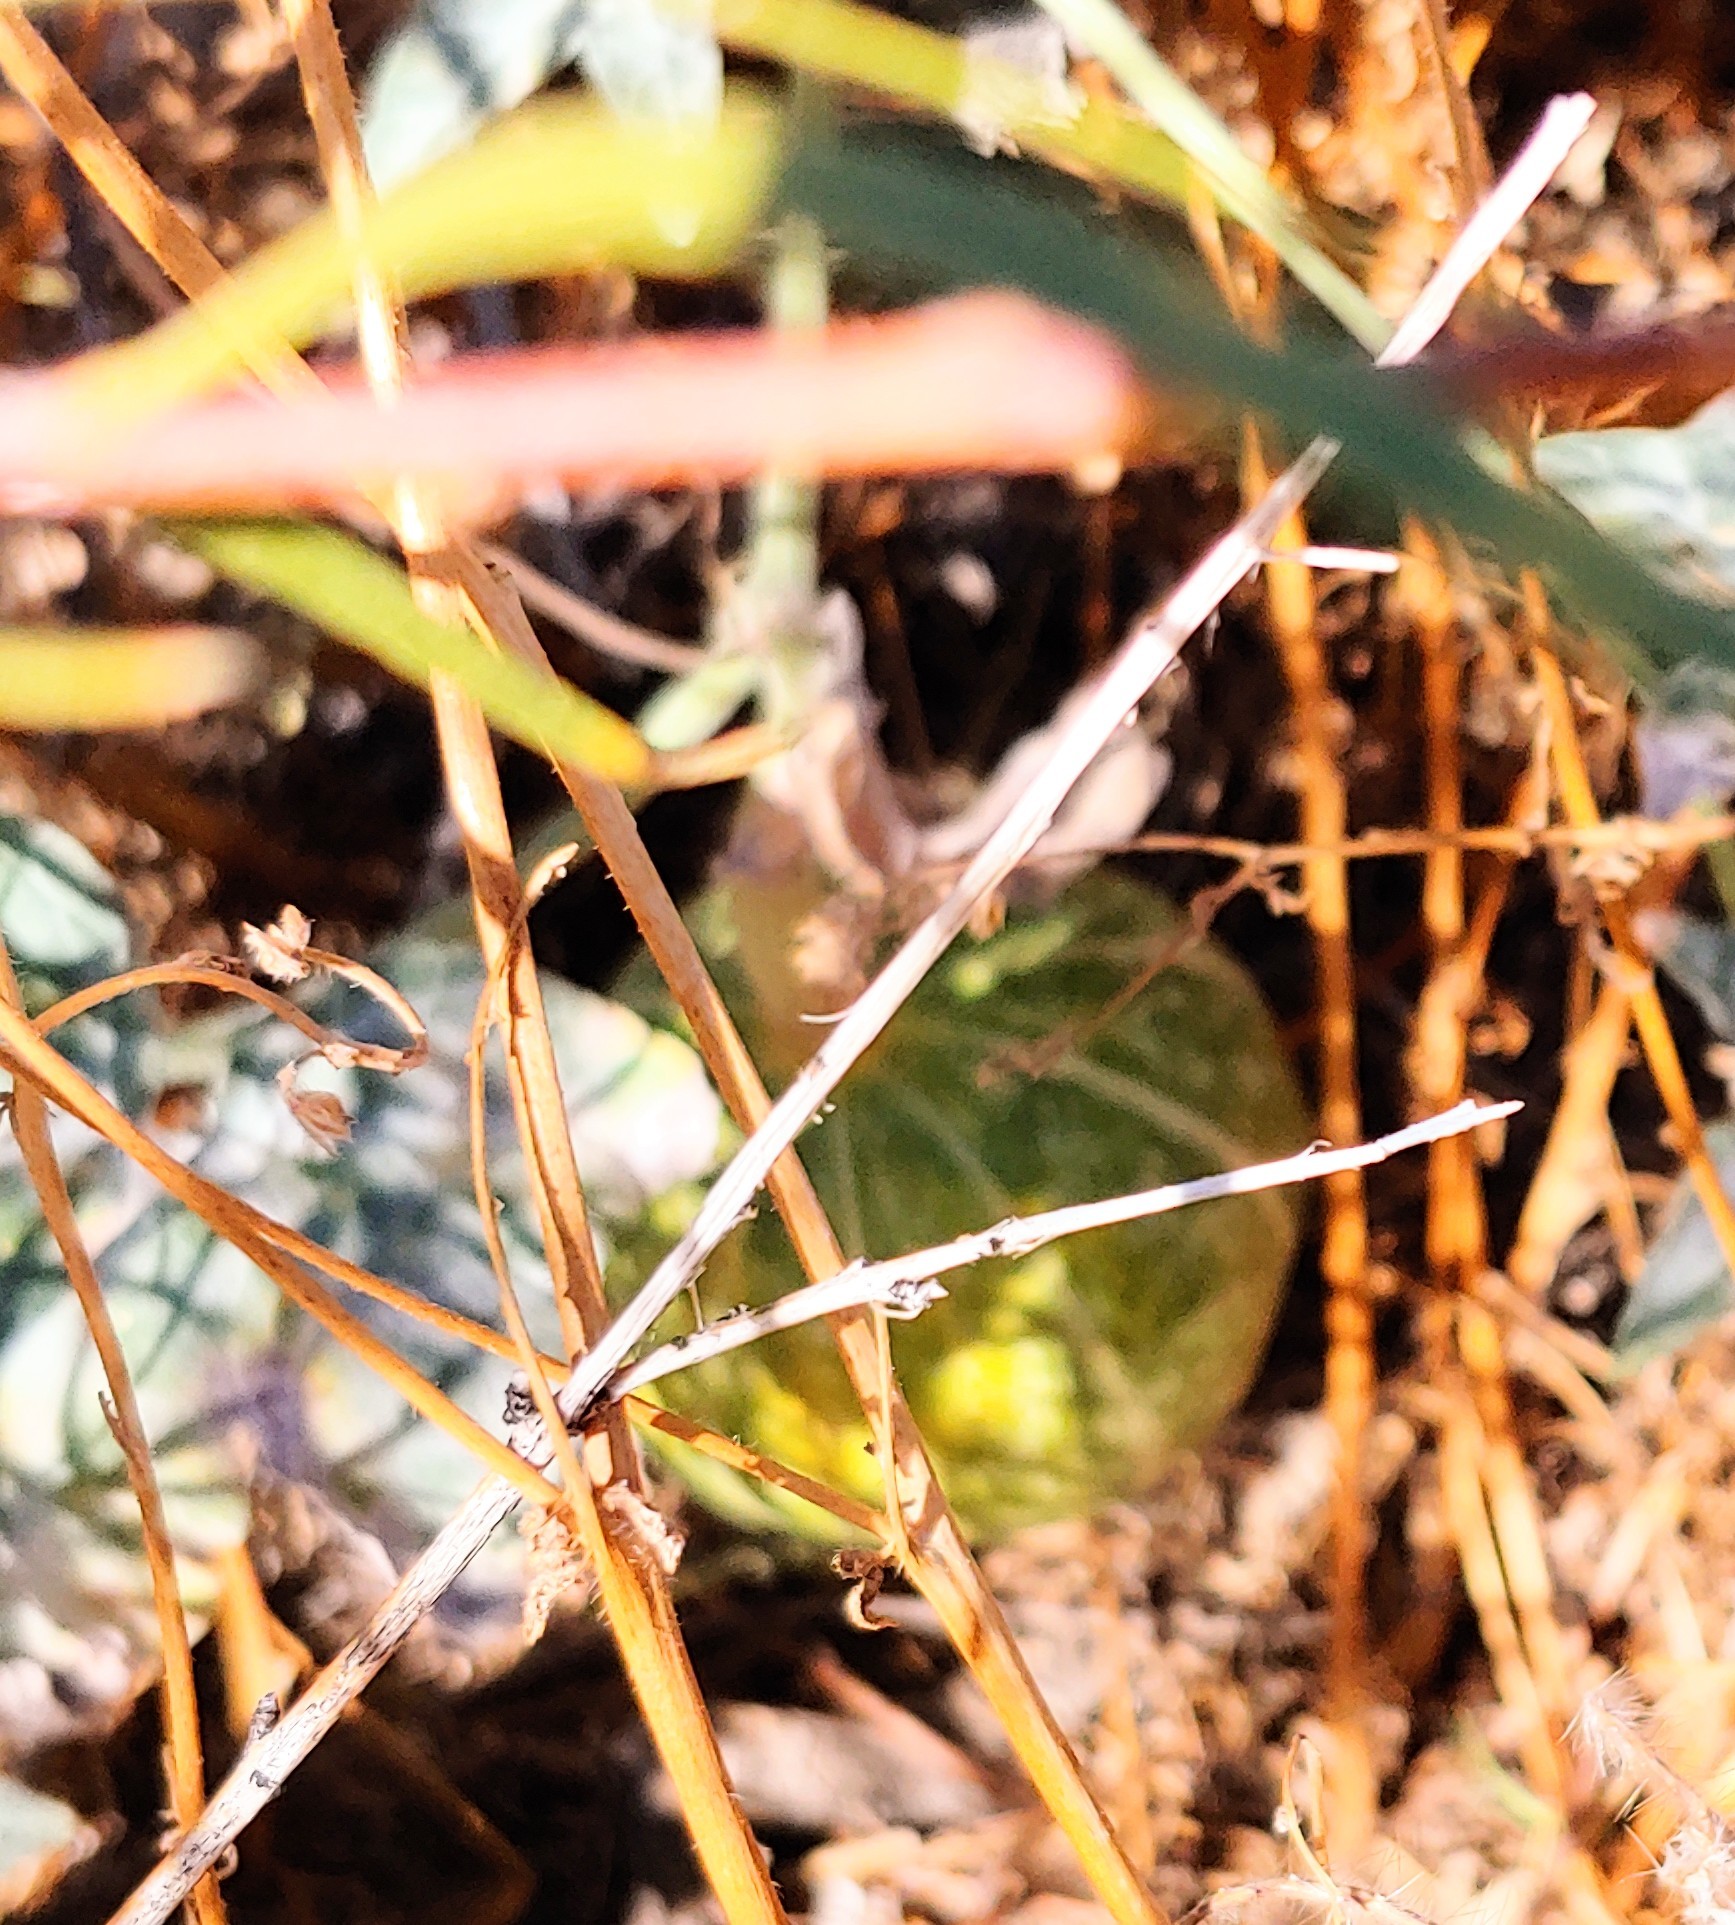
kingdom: Plantae
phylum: Tracheophyta
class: Magnoliopsida
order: Cucurbitales
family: Cucurbitaceae
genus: Cucurbita
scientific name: Cucurbita palmata
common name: Coyote-melon
